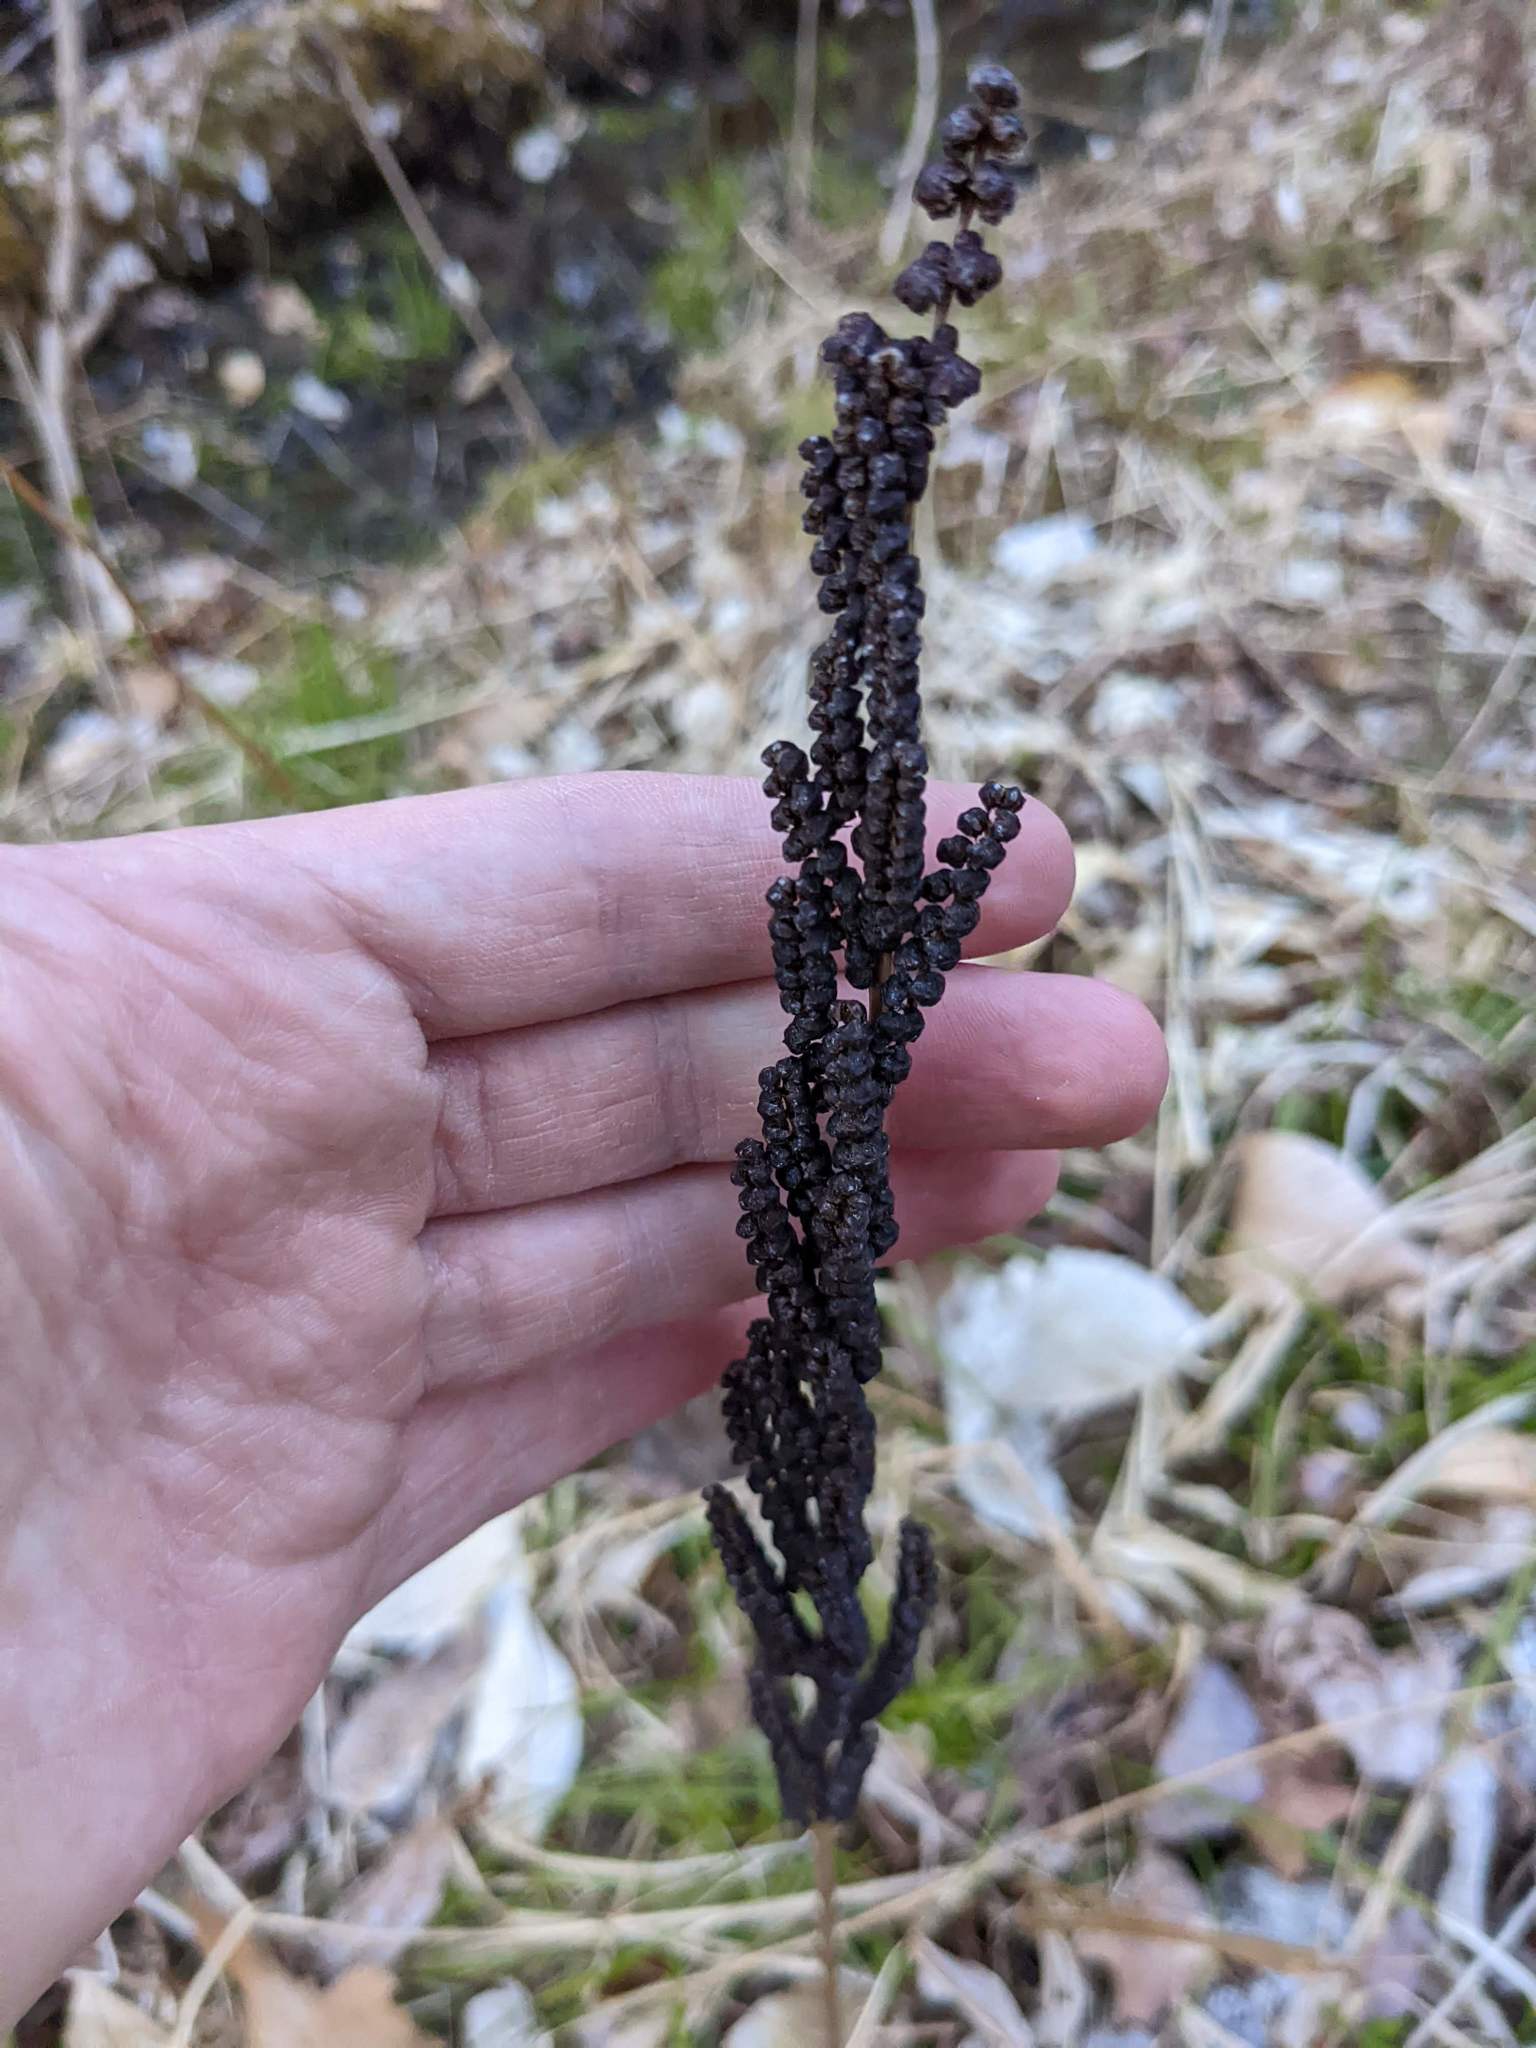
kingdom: Plantae
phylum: Tracheophyta
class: Polypodiopsida
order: Polypodiales
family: Onocleaceae
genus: Onoclea
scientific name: Onoclea sensibilis
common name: Sensitive fern
